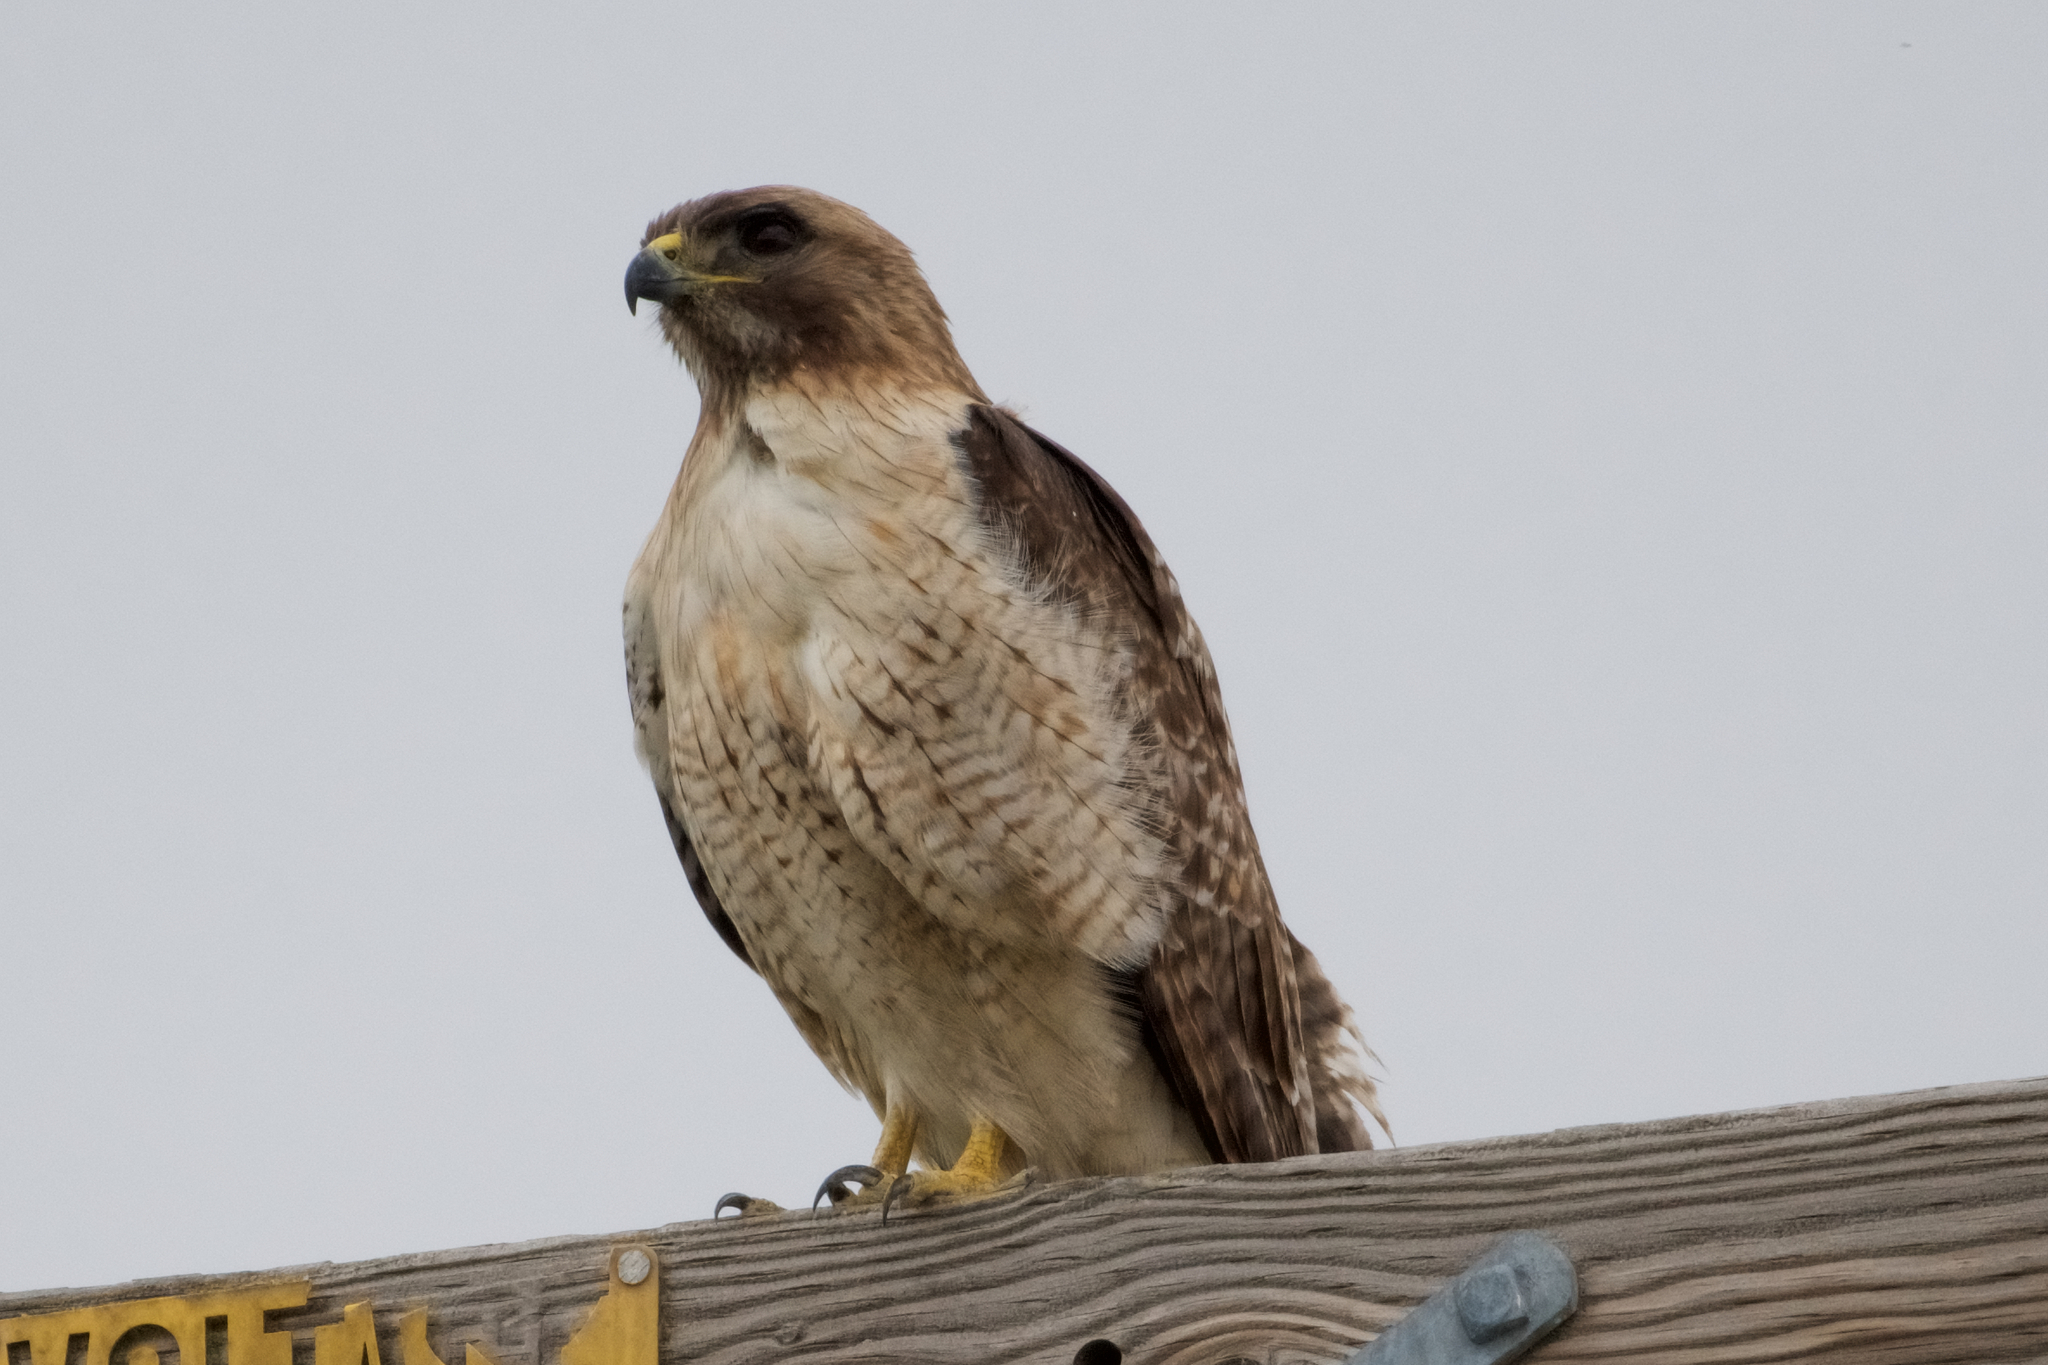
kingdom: Animalia
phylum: Chordata
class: Aves
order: Accipitriformes
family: Accipitridae
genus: Buteo
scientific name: Buteo jamaicensis
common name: Red-tailed hawk
